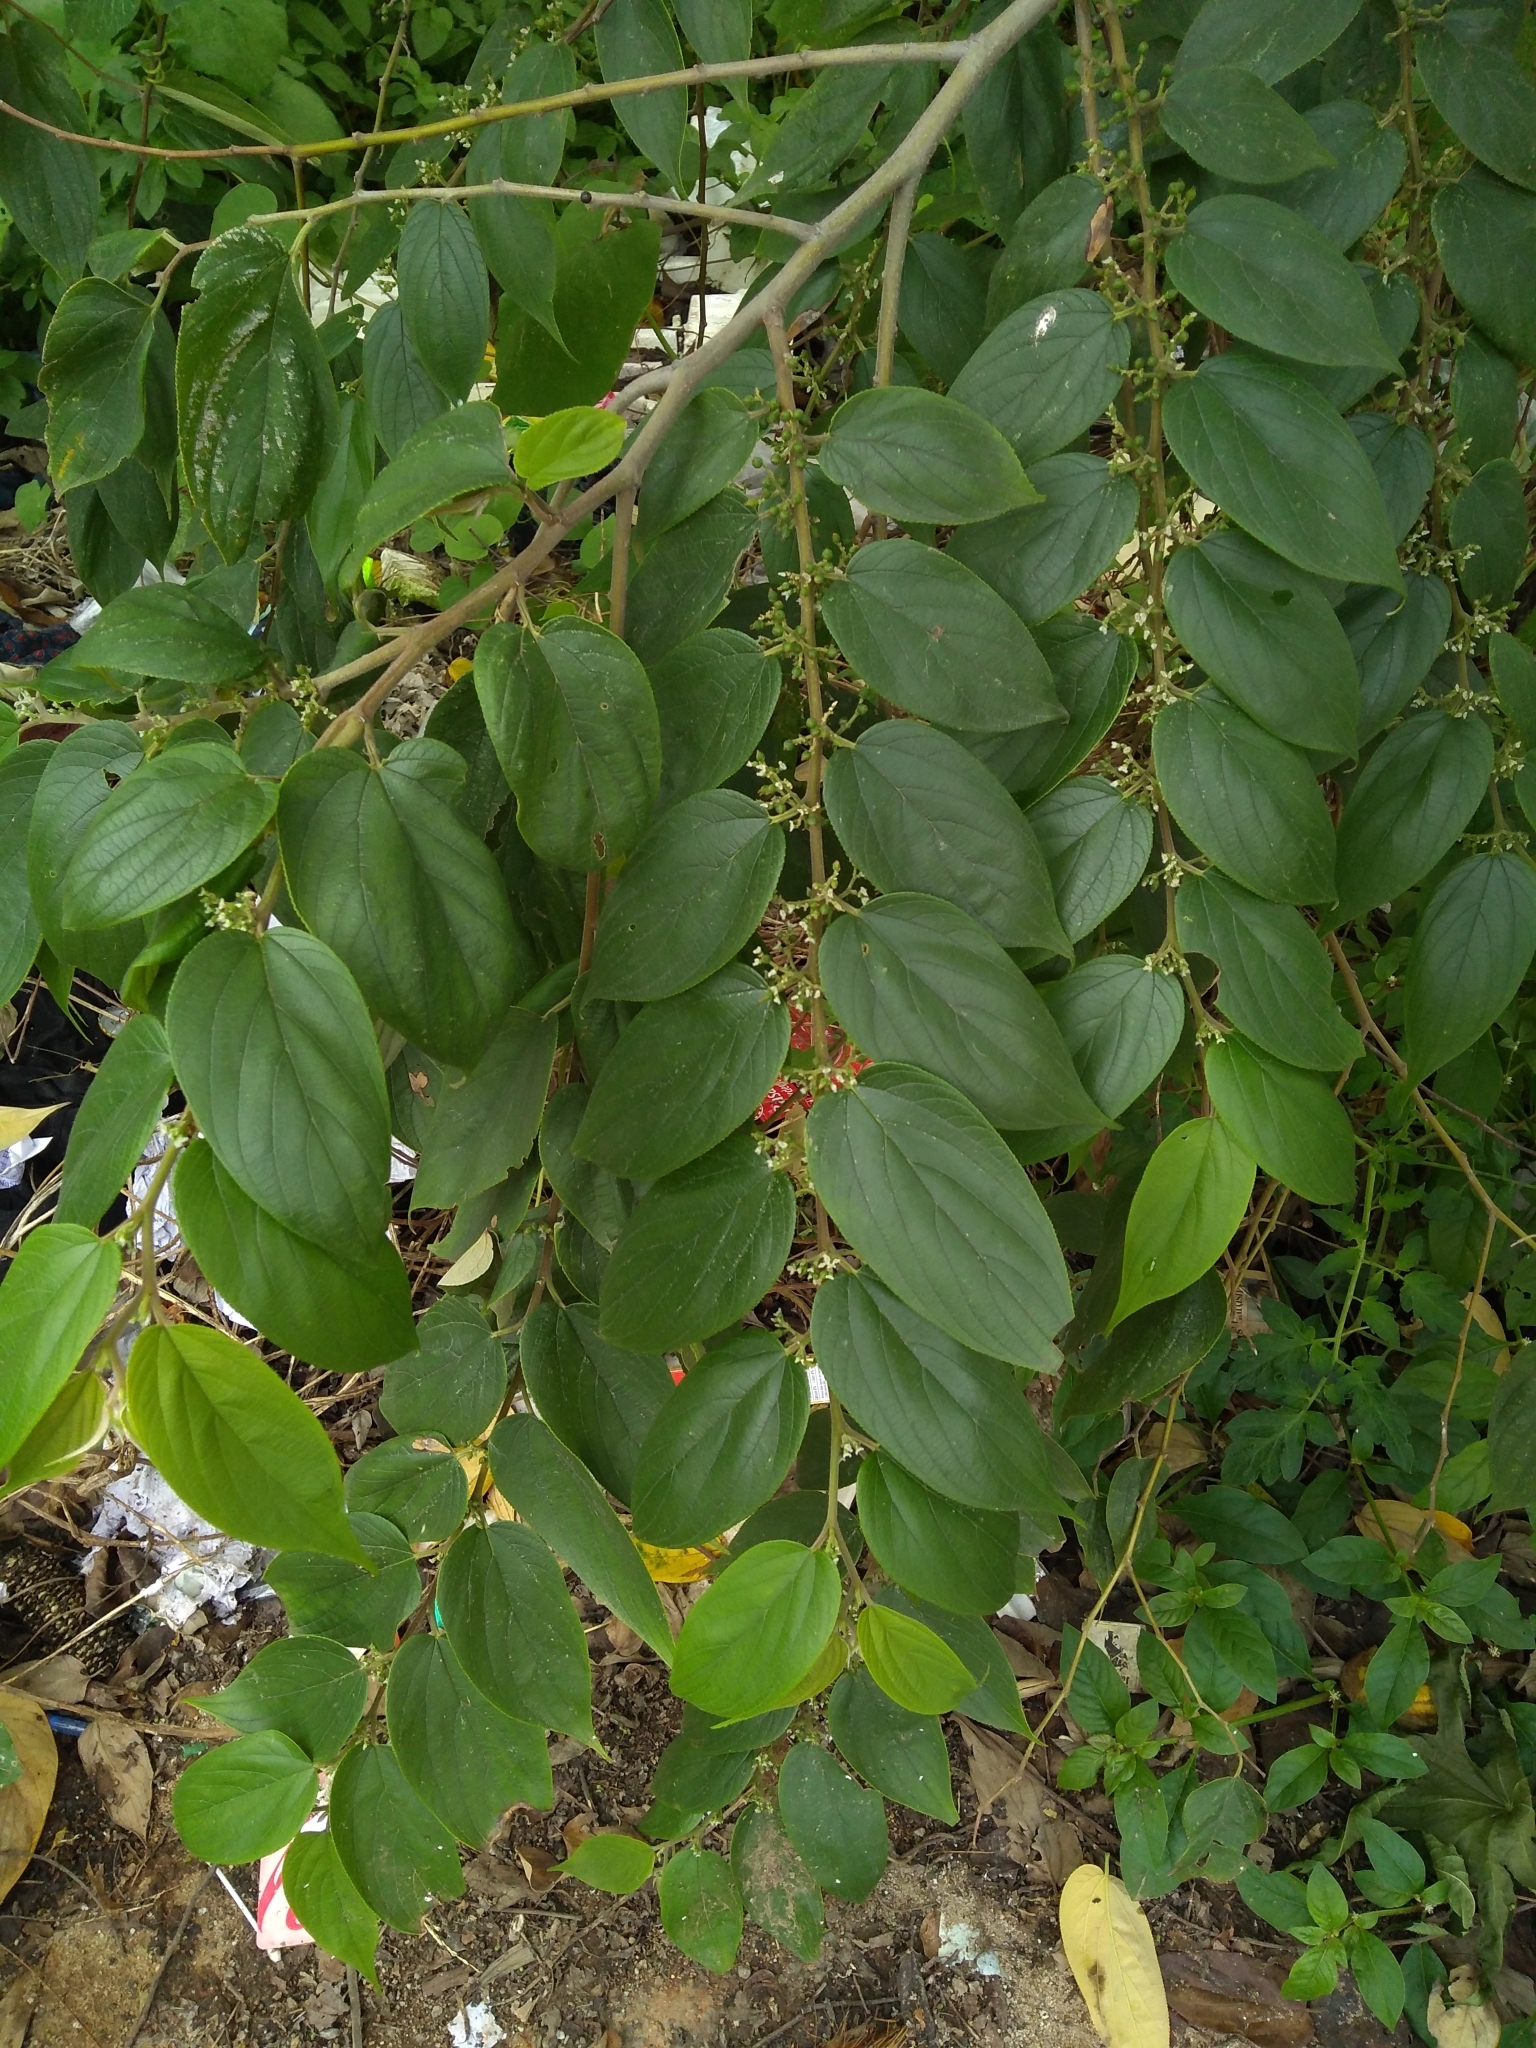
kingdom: Plantae
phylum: Tracheophyta
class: Magnoliopsida
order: Rosales
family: Cannabaceae
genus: Trema
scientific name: Trema orientale
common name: Indian charcoal tree
